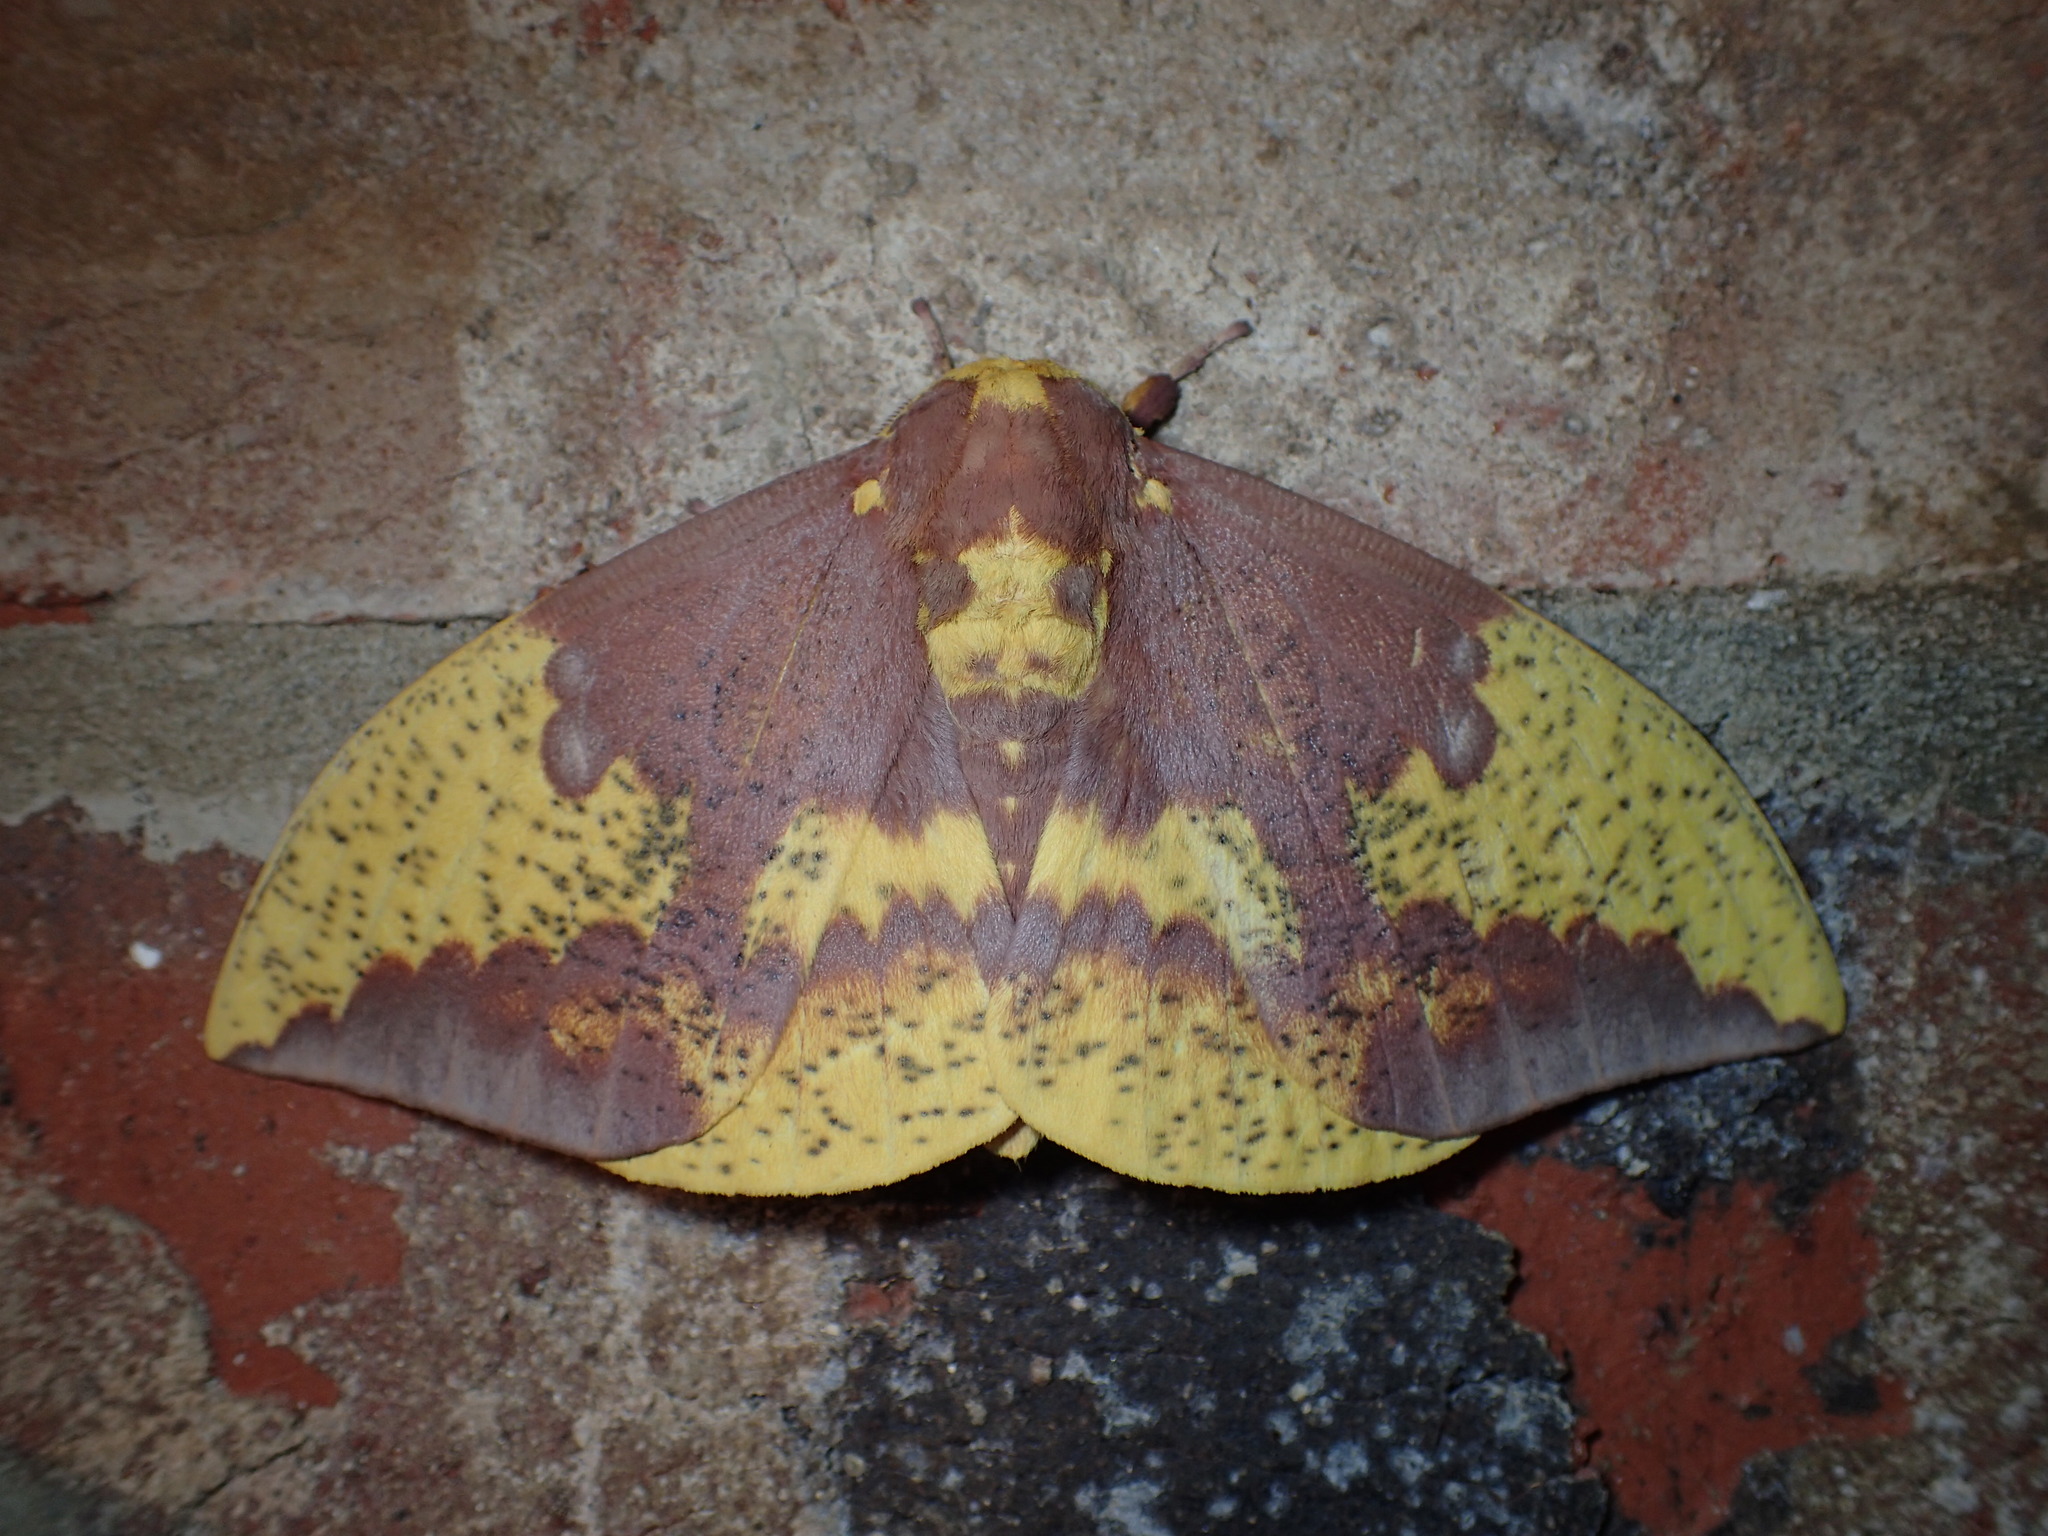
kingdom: Animalia
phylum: Arthropoda
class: Insecta
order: Lepidoptera
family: Saturniidae
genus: Eacles
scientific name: Eacles imperialis
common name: Imperial moth
